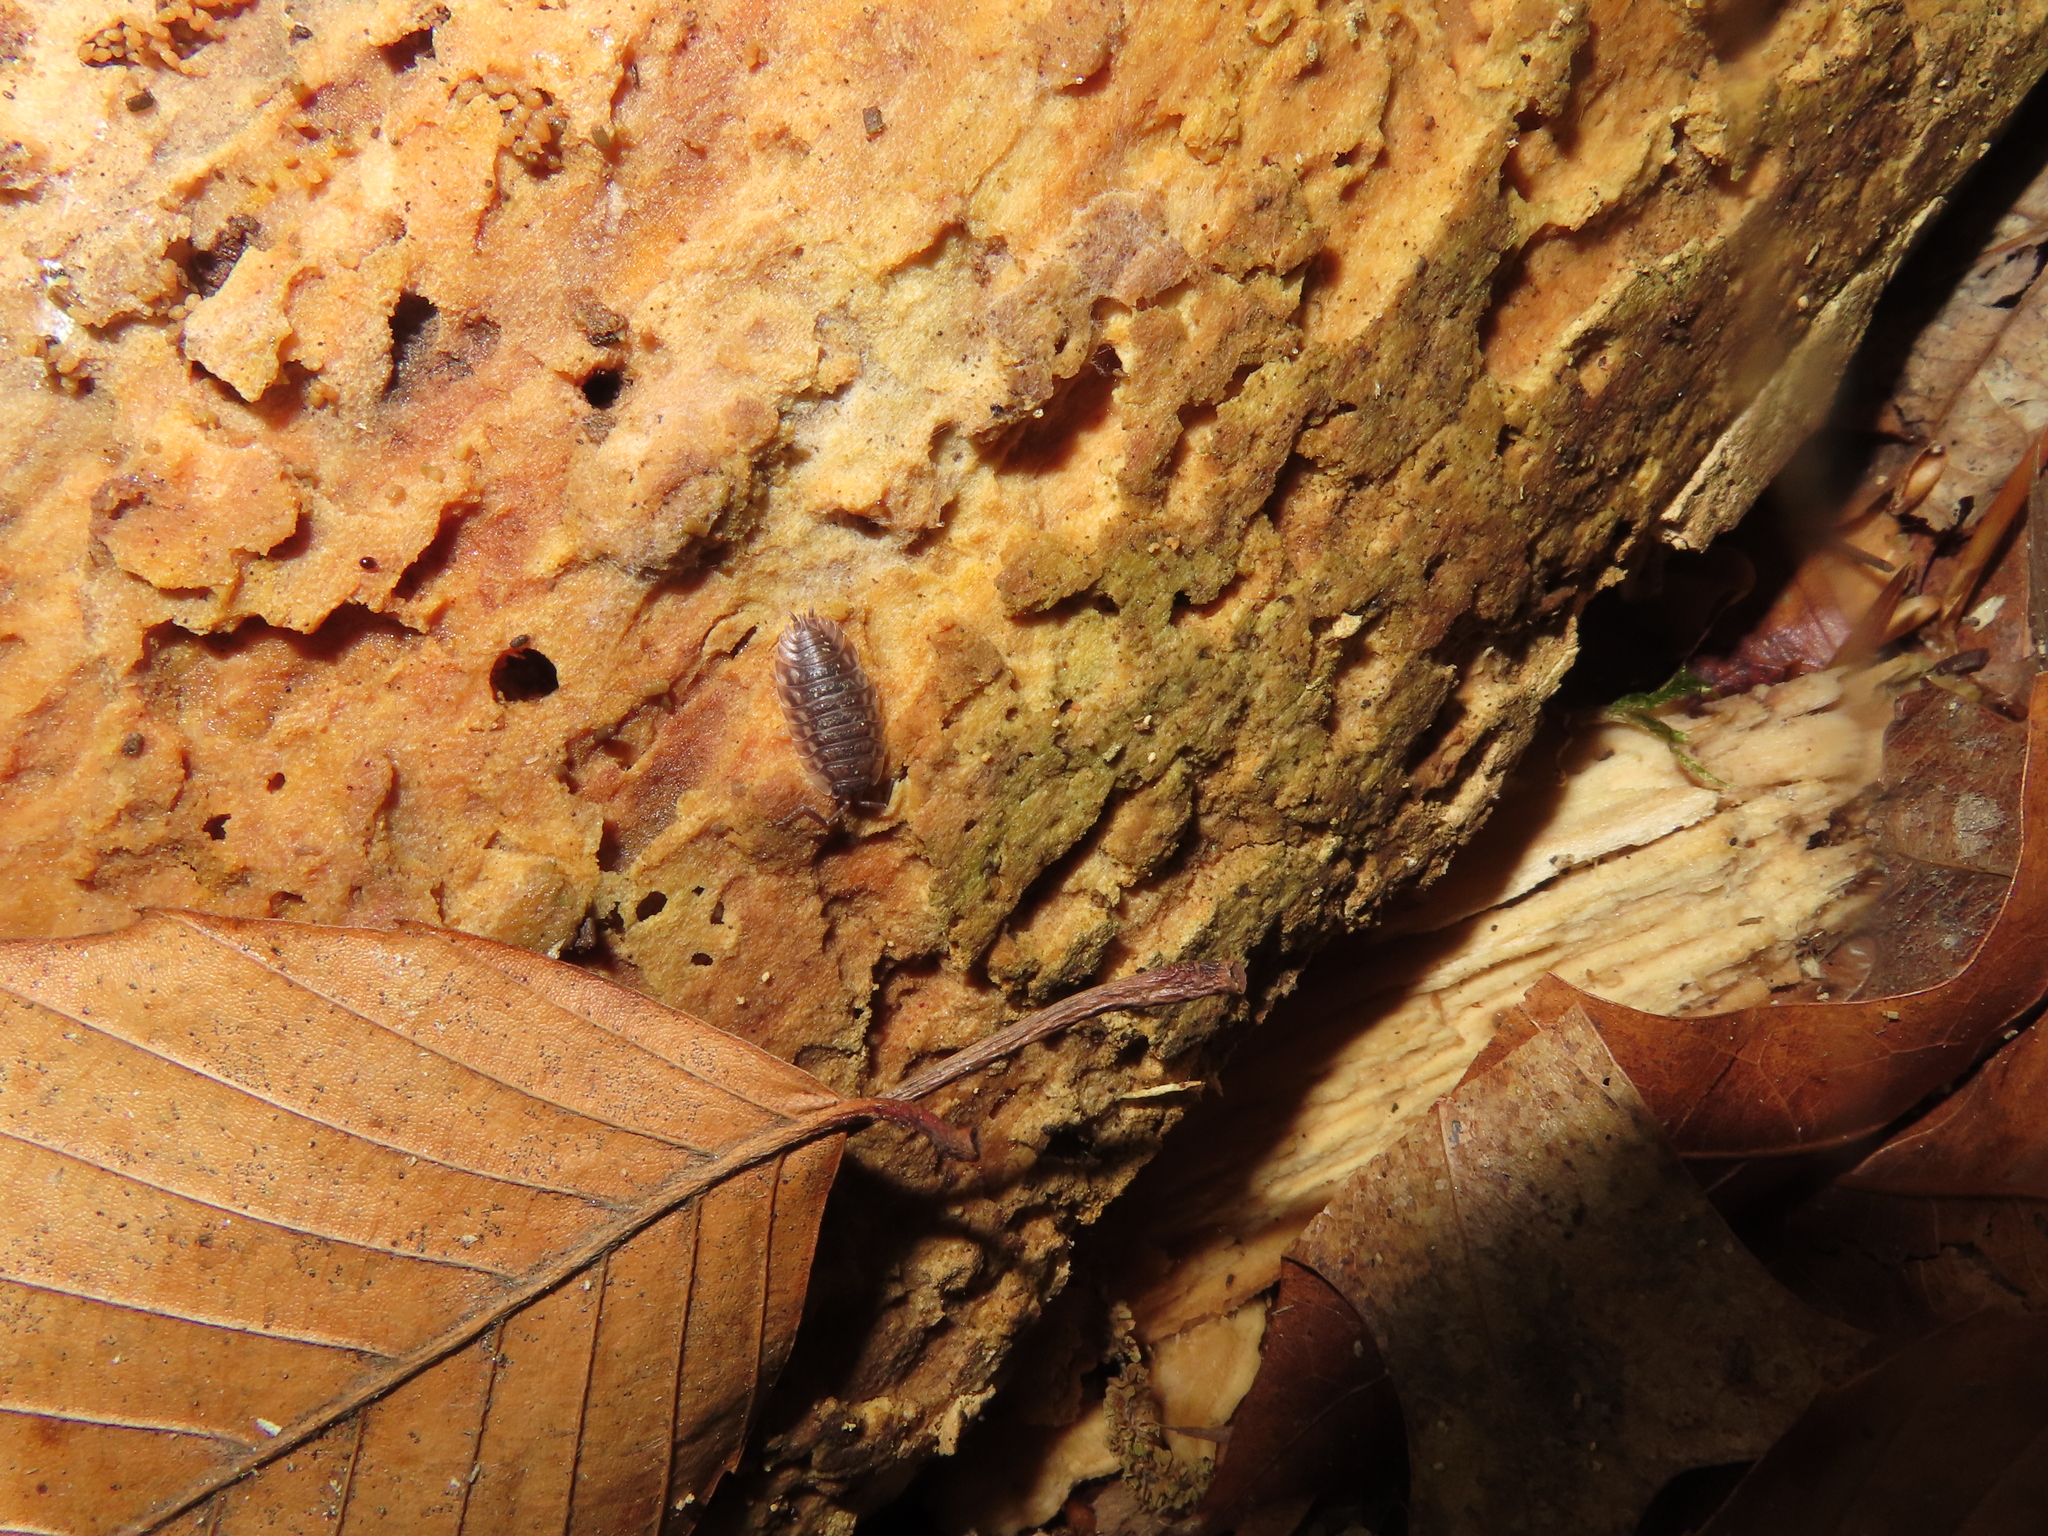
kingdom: Animalia
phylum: Arthropoda
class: Malacostraca
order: Isopoda
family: Oniscidae
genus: Oniscus
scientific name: Oniscus asellus
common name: Common shiny woodlouse
